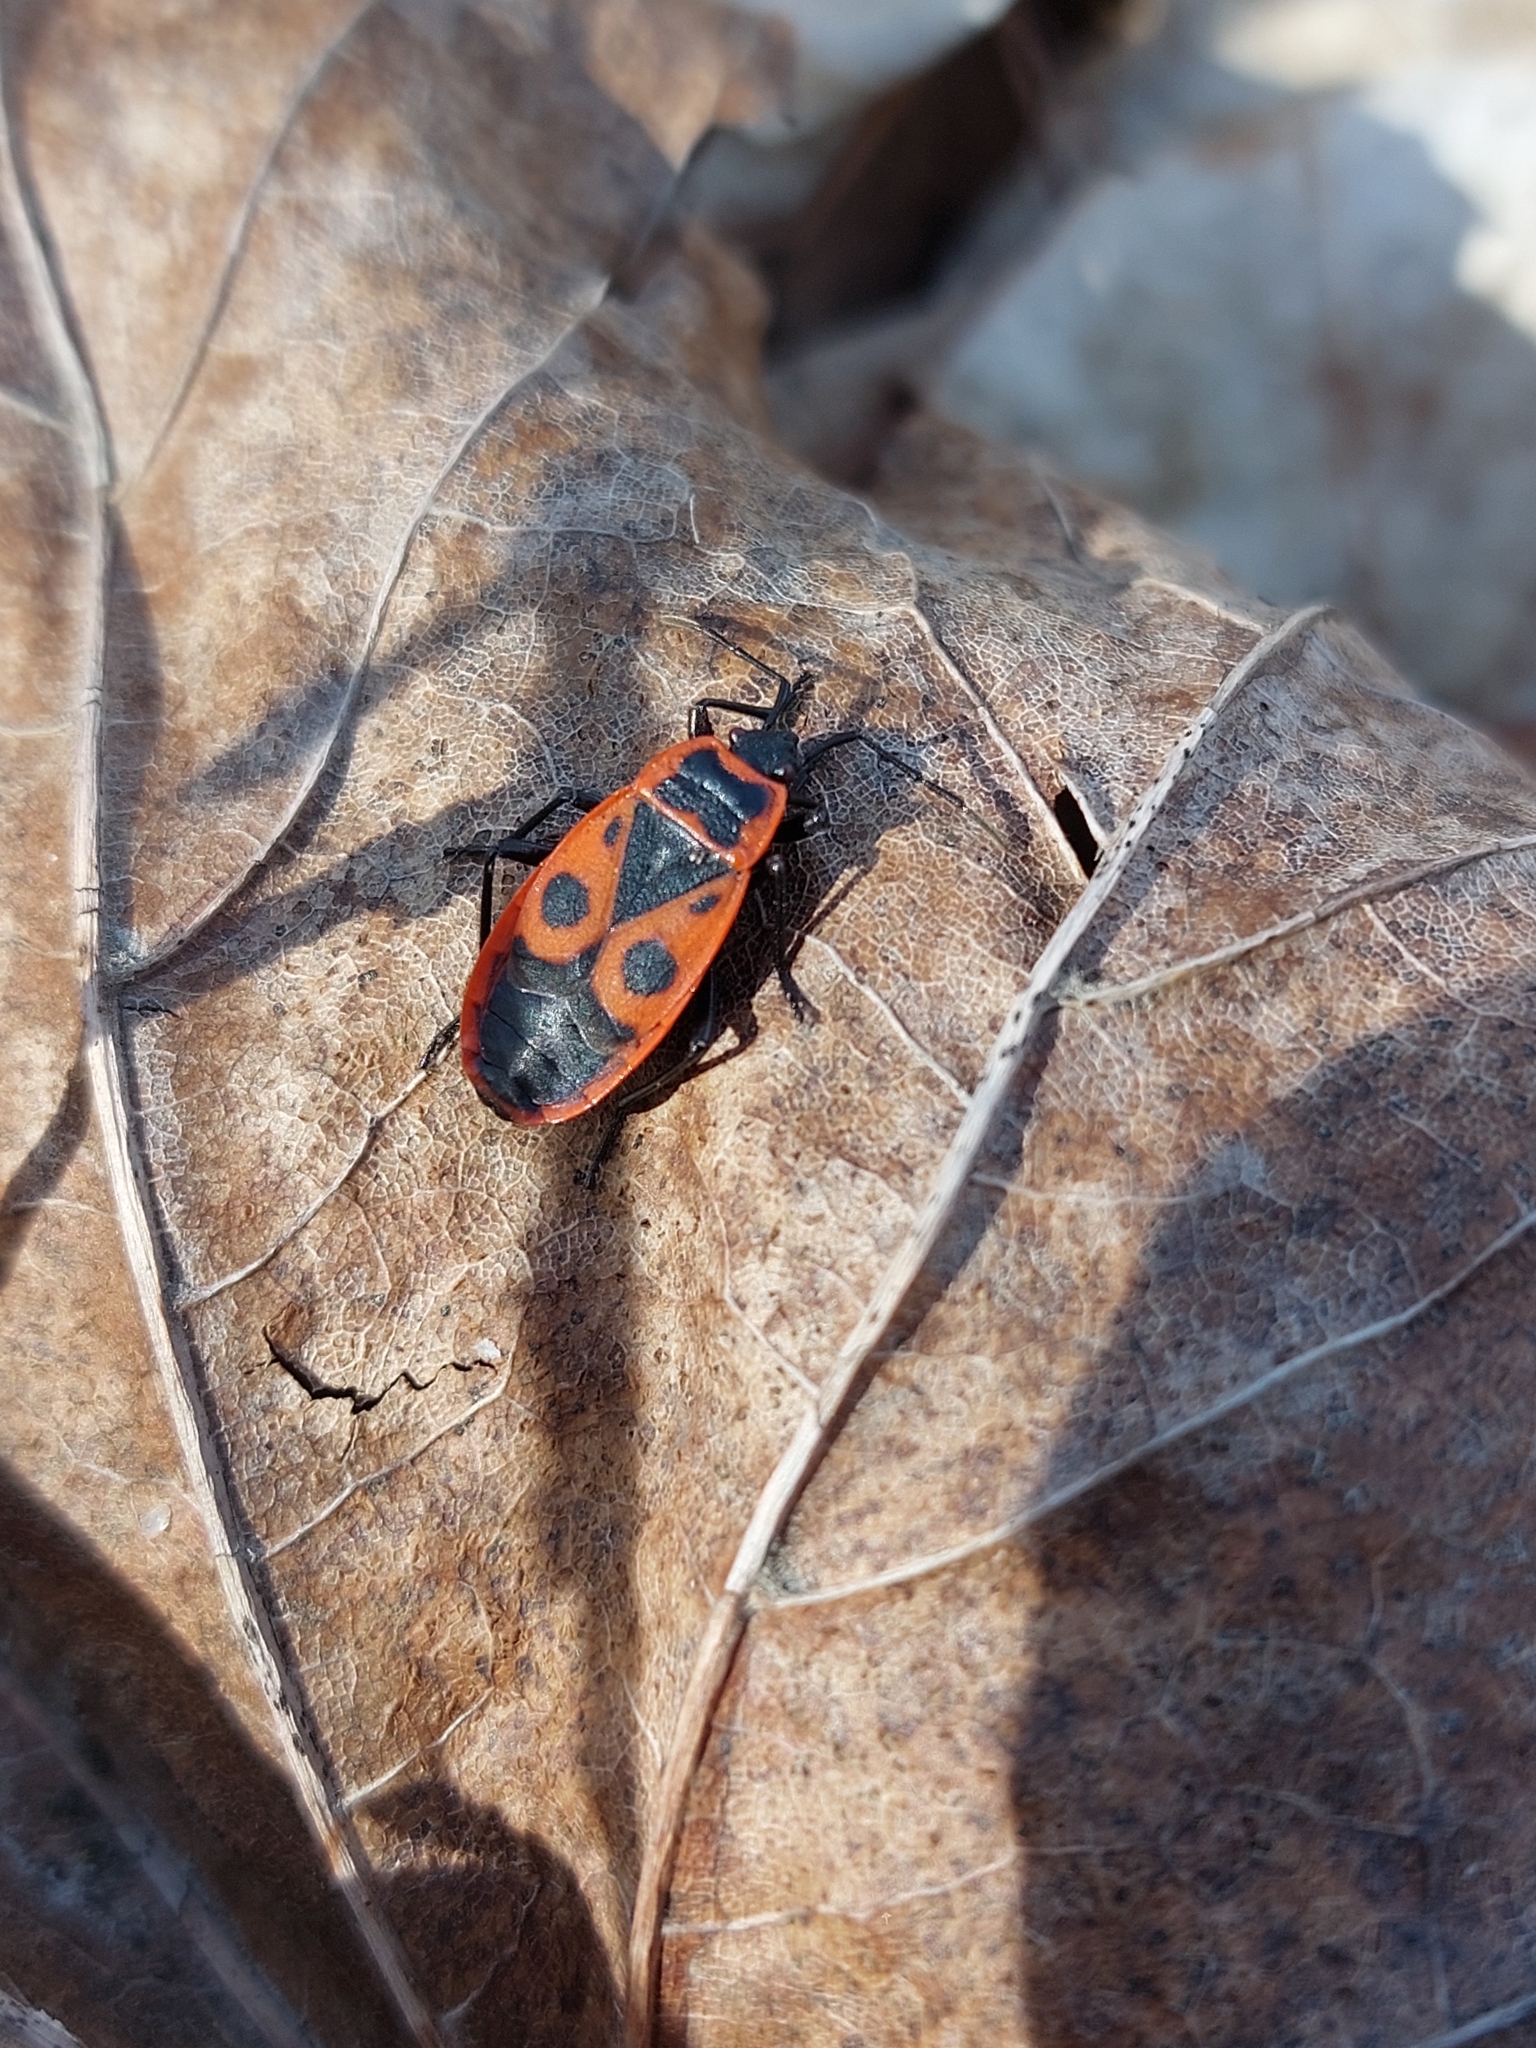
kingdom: Animalia
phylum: Arthropoda
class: Insecta
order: Hemiptera
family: Pyrrhocoridae
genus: Pyrrhocoris
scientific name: Pyrrhocoris apterus
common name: Firebug
